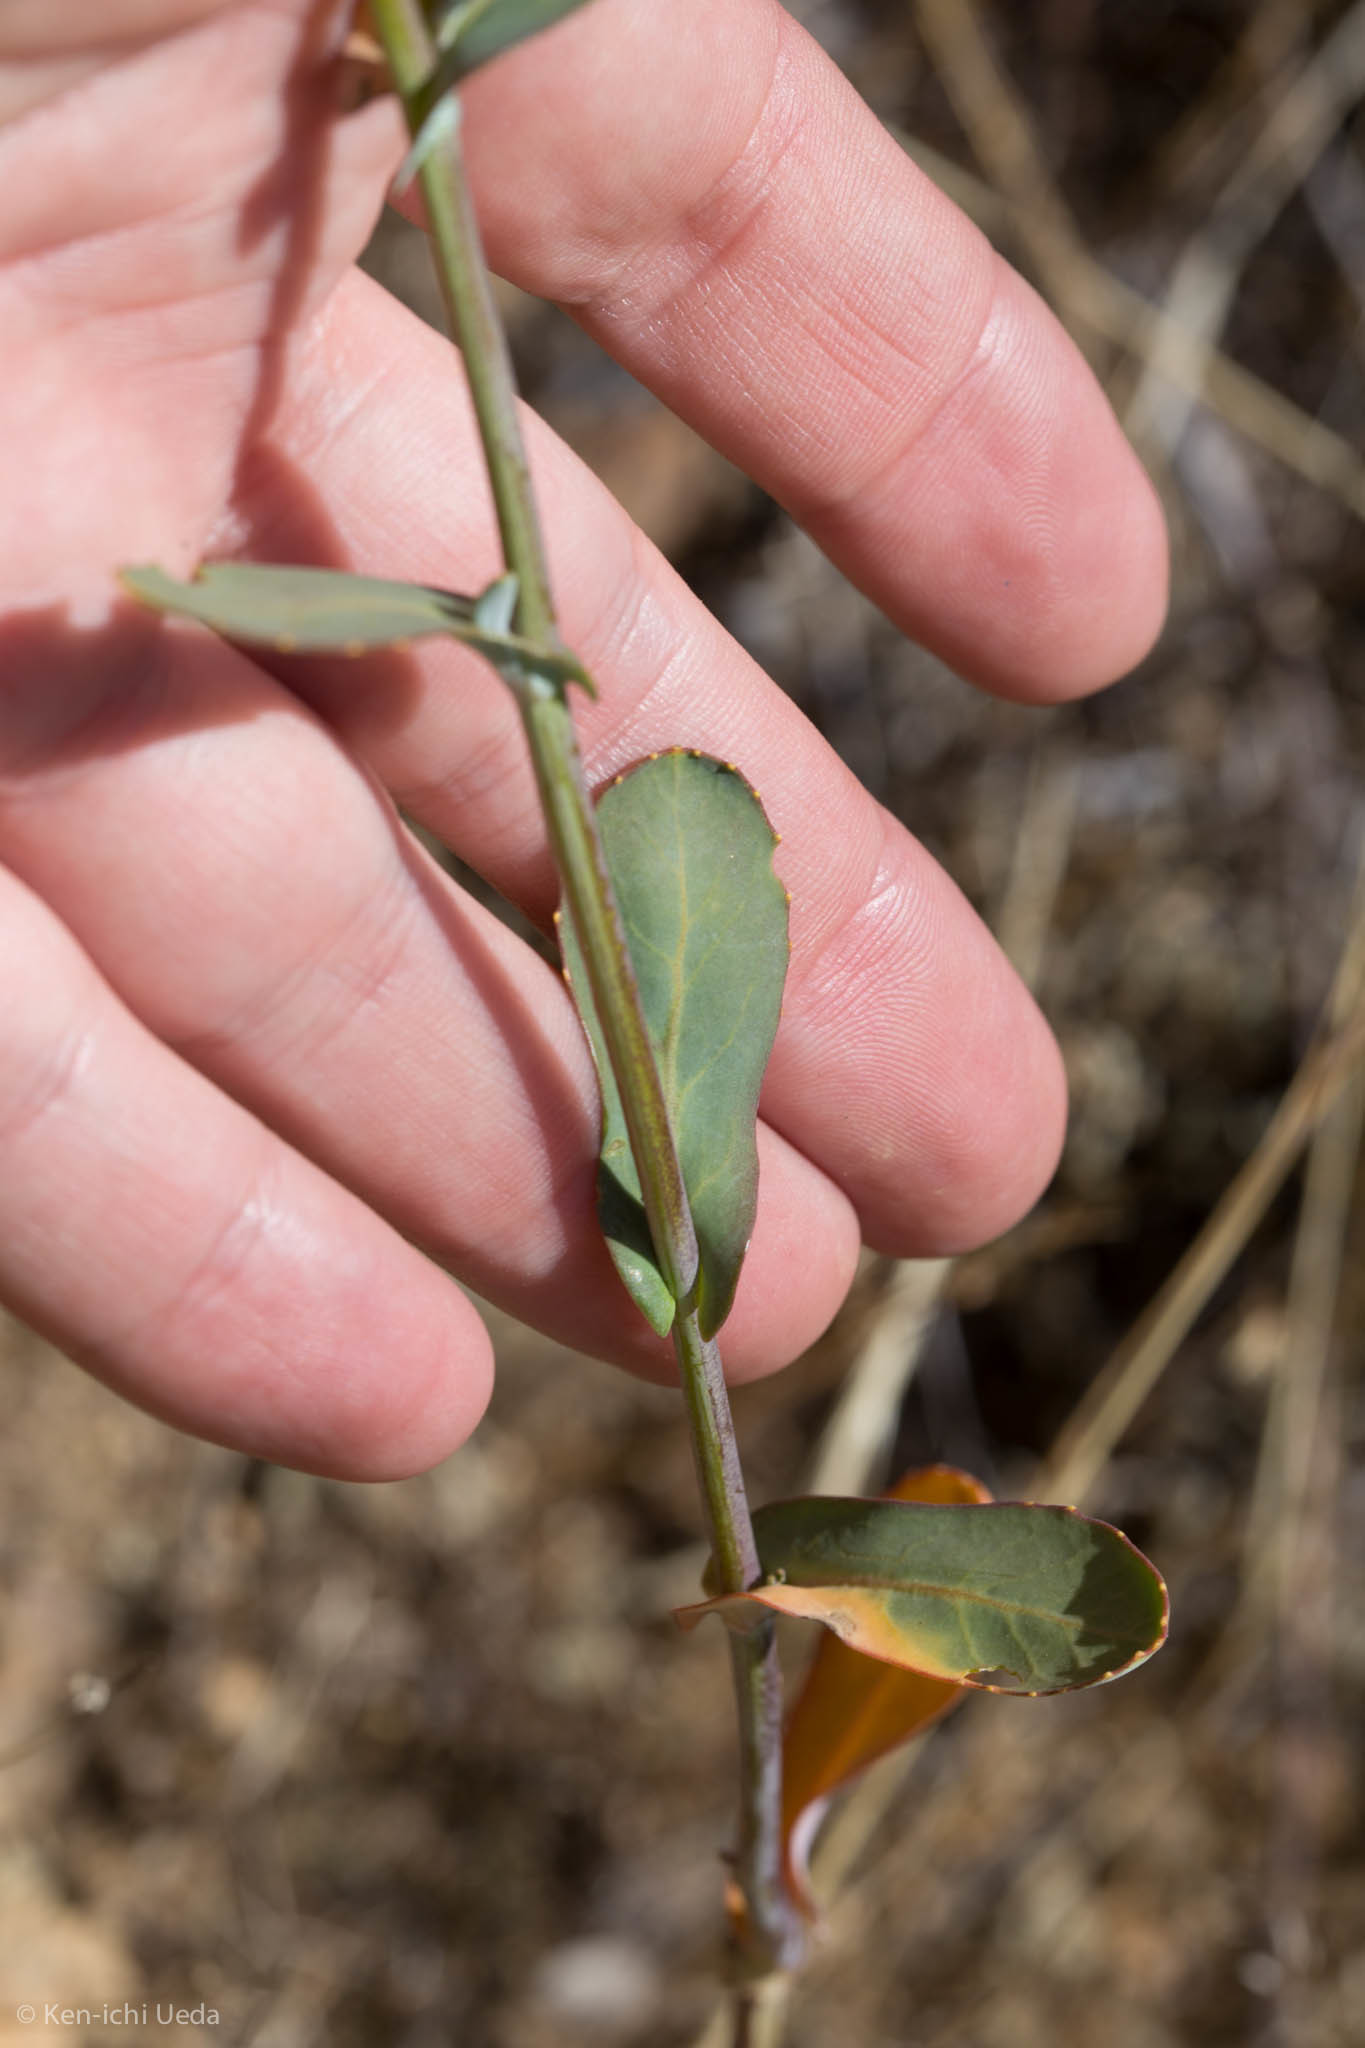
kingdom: Plantae
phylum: Tracheophyta
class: Magnoliopsida
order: Brassicales
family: Brassicaceae
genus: Streptanthus
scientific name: Streptanthus tortuosus
